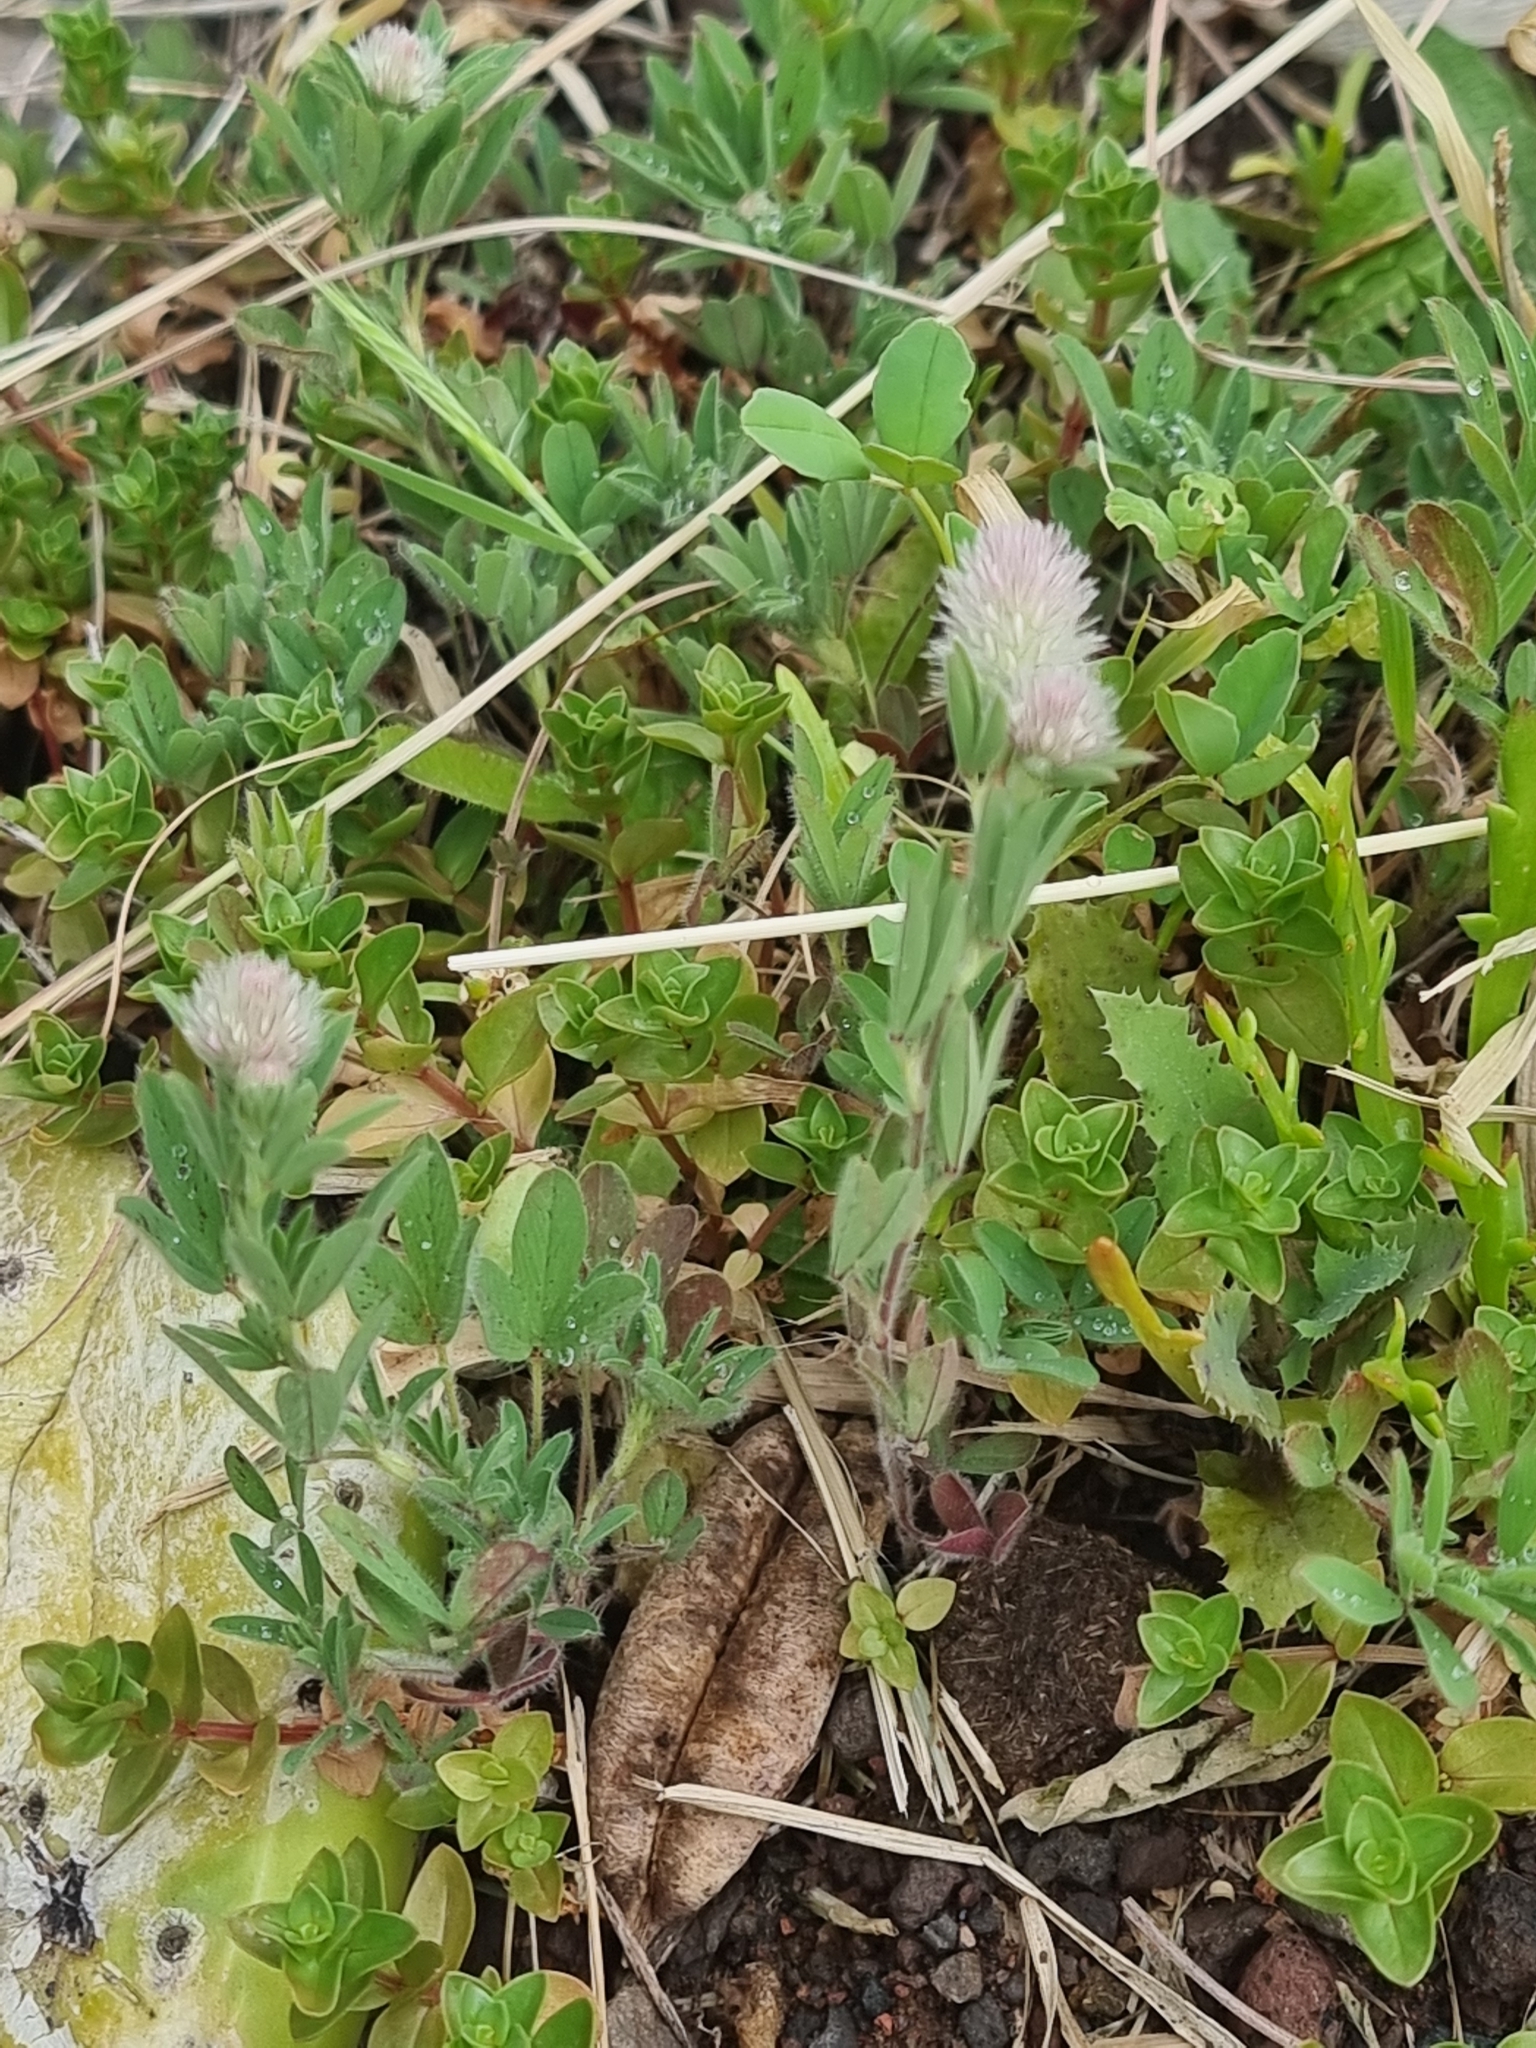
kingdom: Plantae
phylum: Tracheophyta
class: Magnoliopsida
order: Fabales
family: Fabaceae
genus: Trifolium
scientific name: Trifolium arvense
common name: Hare's-foot clover
